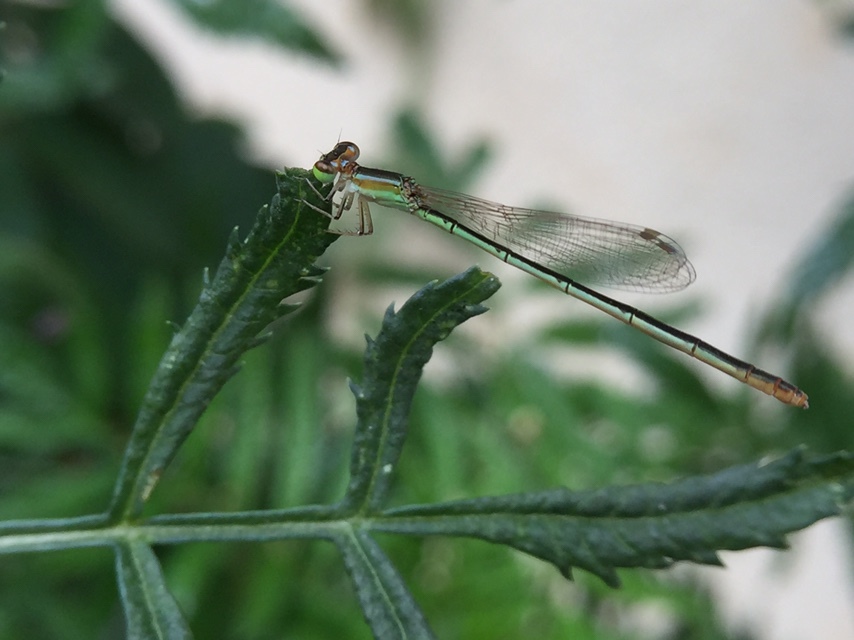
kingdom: Animalia
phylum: Arthropoda
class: Insecta
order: Odonata
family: Coenagrionidae
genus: Agriocnemis
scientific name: Agriocnemis pygmaea
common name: Pygmy wisp
